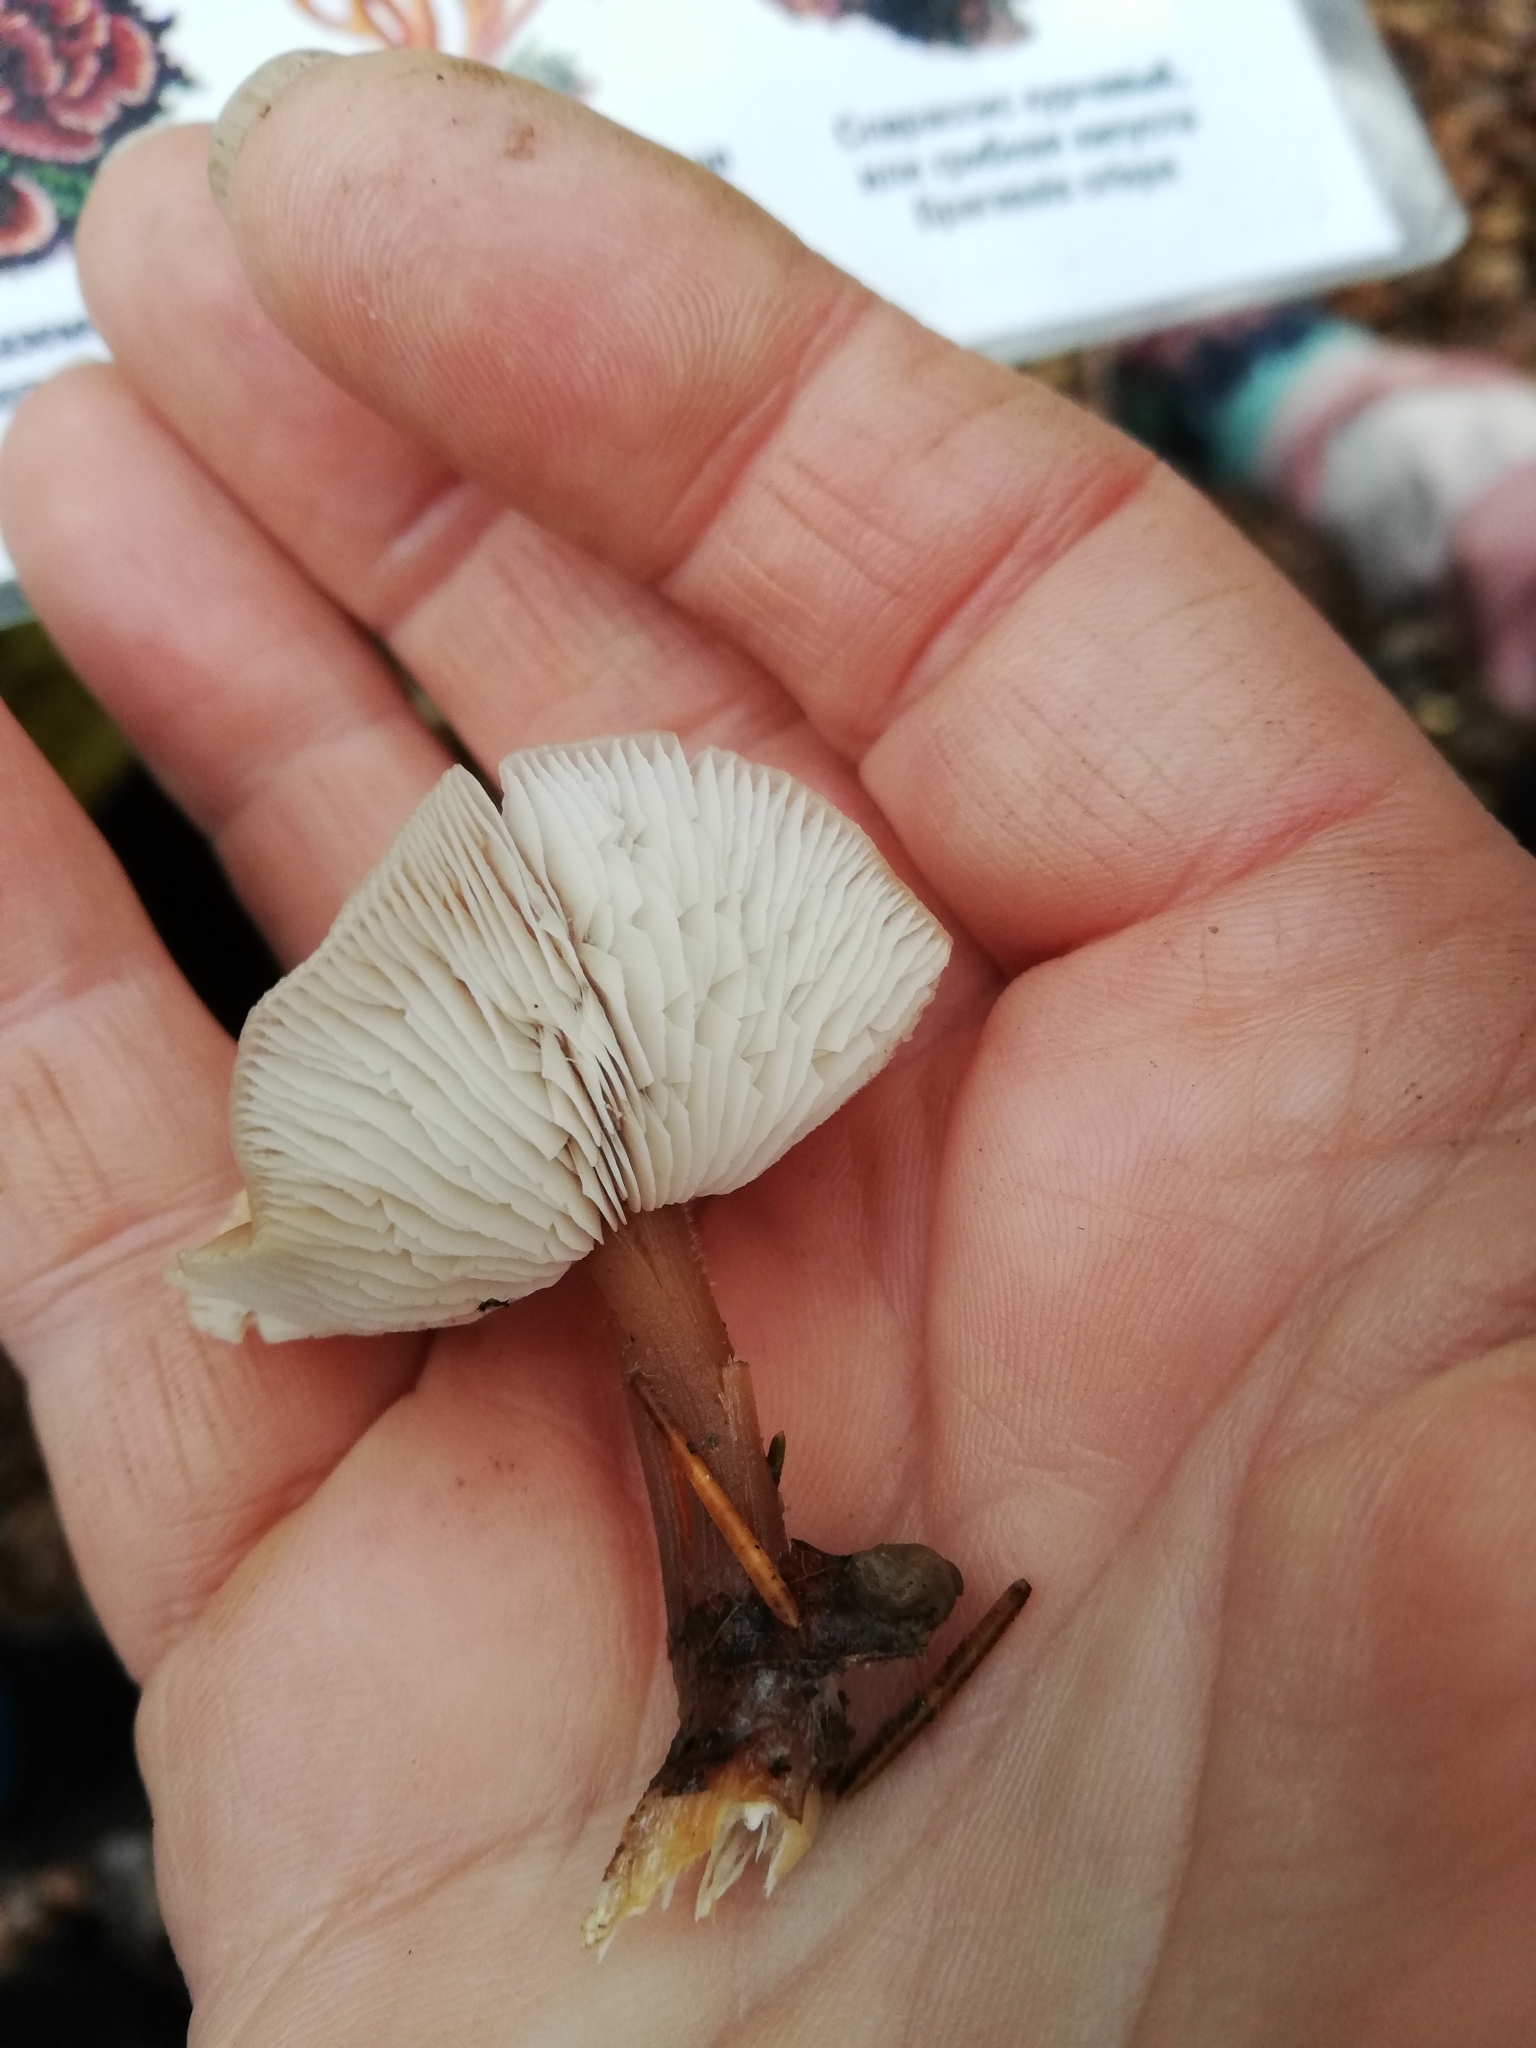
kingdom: Fungi
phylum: Basidiomycota
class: Agaricomycetes
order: Agaricales
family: Omphalotaceae
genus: Rhodocollybia
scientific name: Rhodocollybia butyracea
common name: Butter cap
